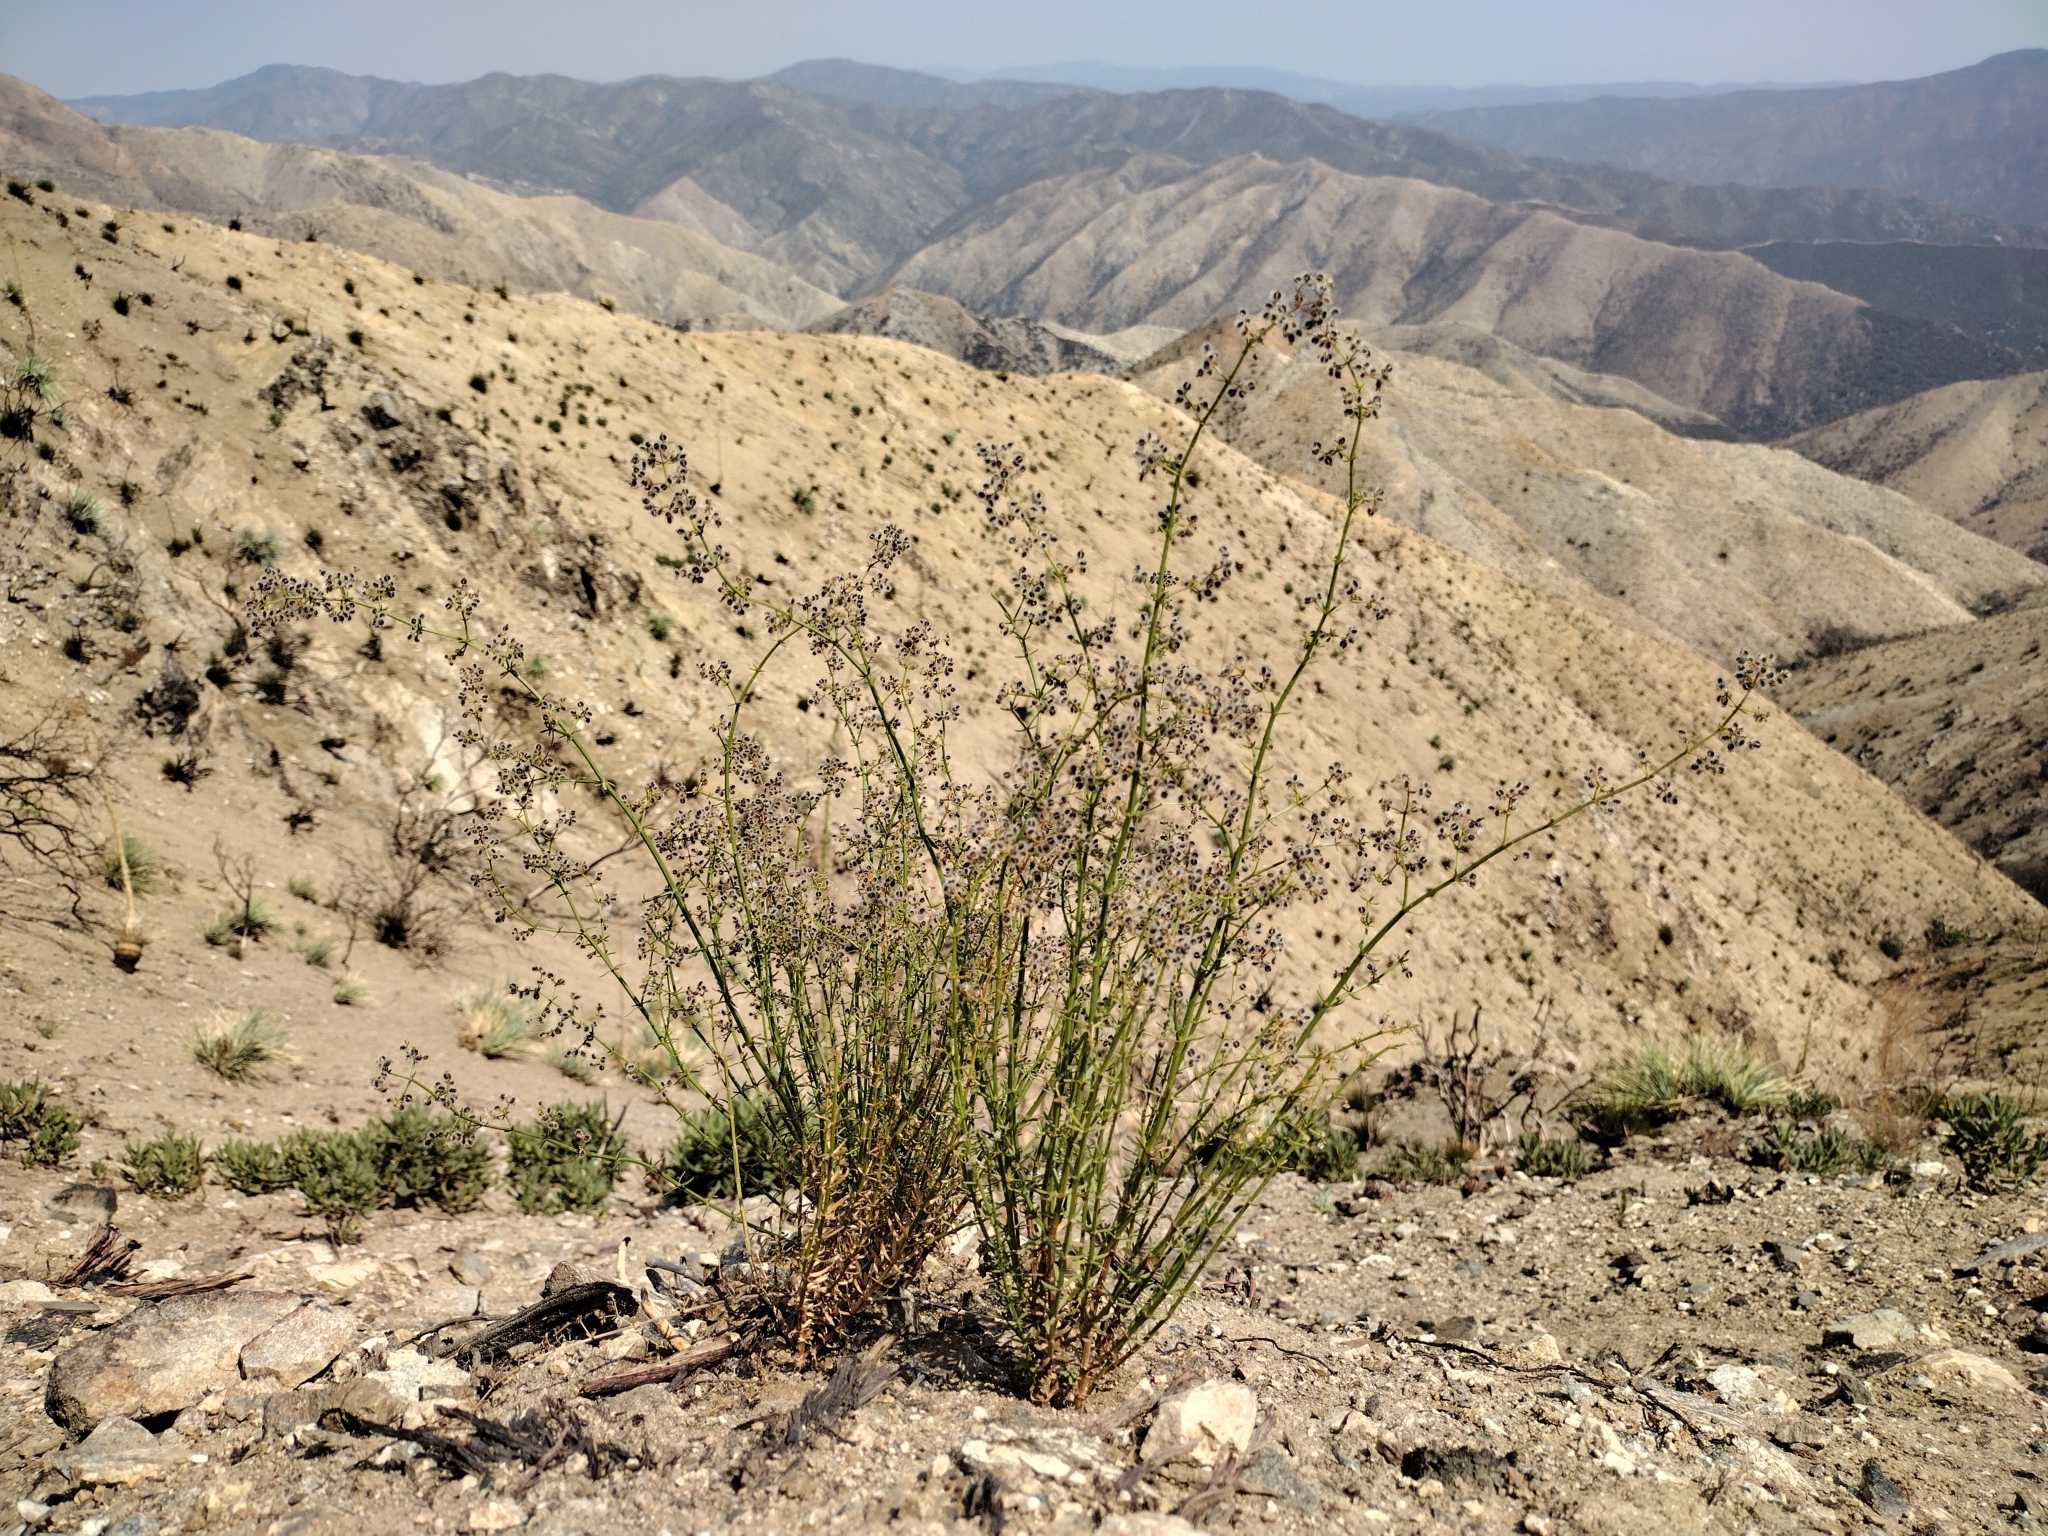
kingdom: Plantae
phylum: Tracheophyta
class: Magnoliopsida
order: Gentianales
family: Rubiaceae
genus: Galium
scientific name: Galium angustifolium
